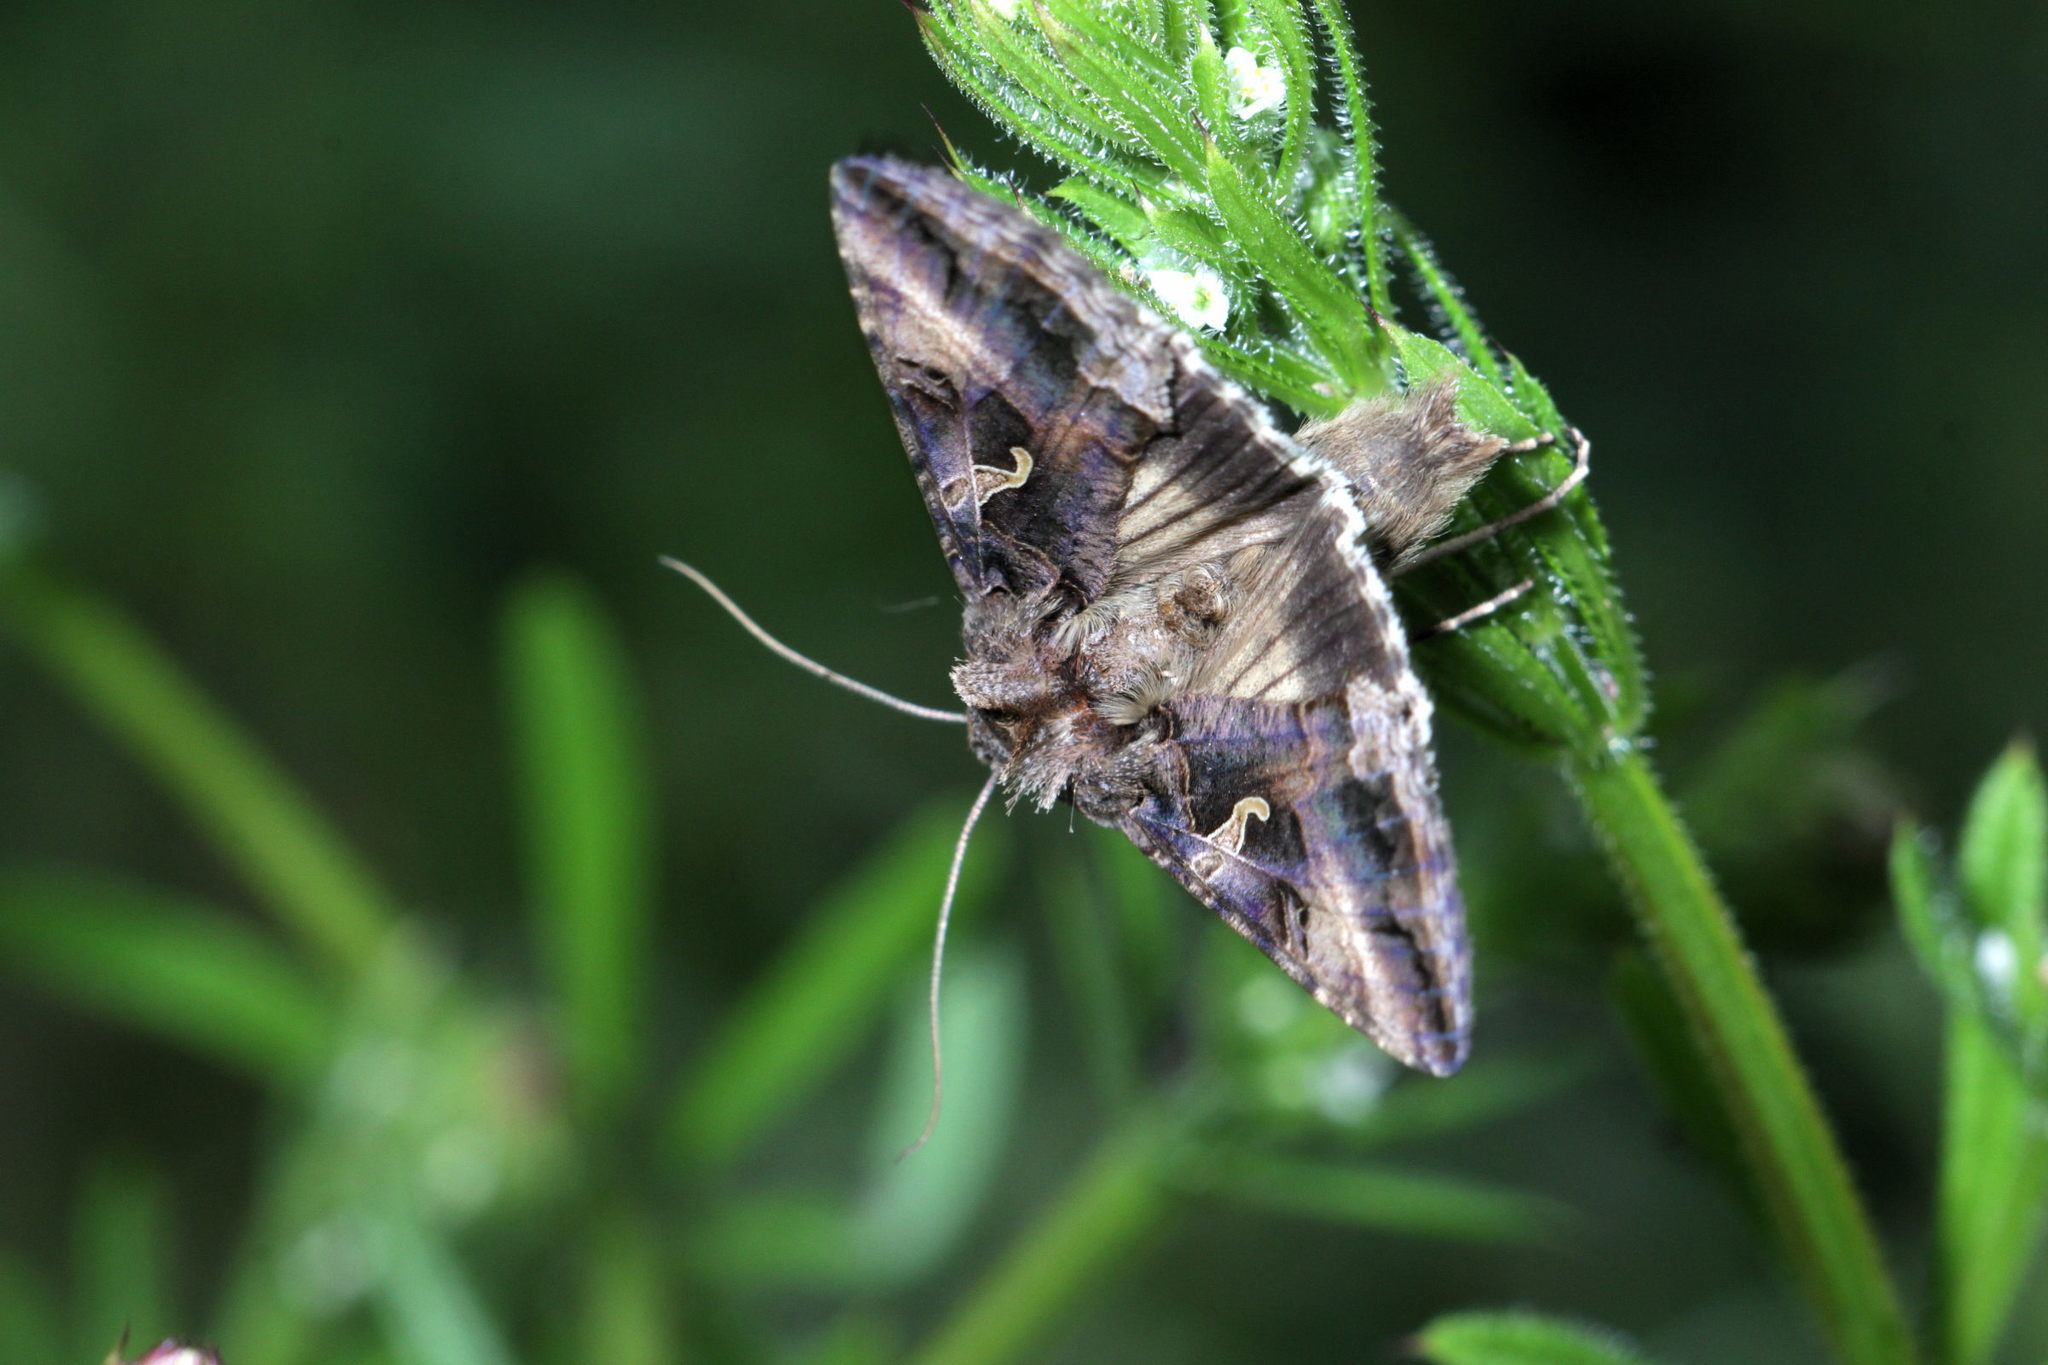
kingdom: Animalia
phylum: Arthropoda
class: Insecta
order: Lepidoptera
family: Noctuidae
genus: Autographa
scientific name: Autographa gamma
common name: Silver y
